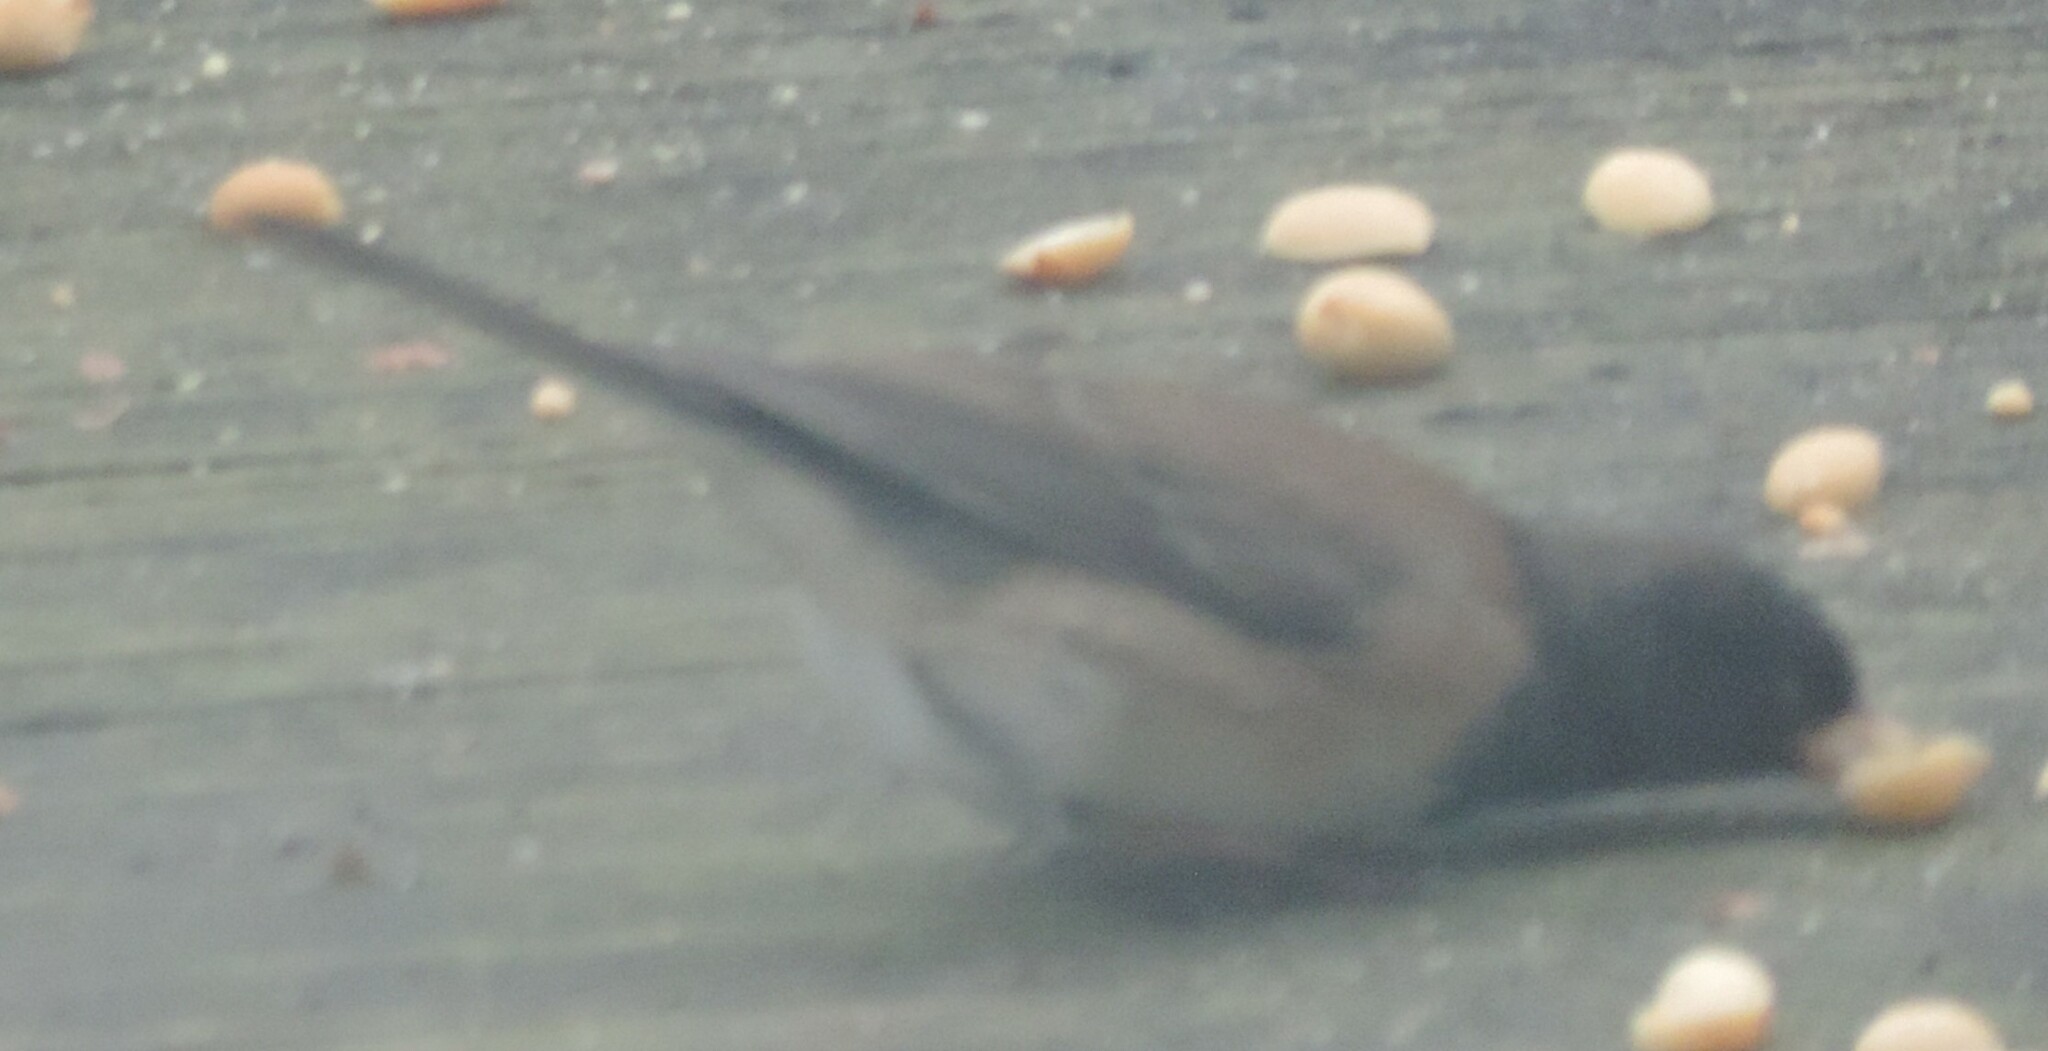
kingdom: Animalia
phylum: Chordata
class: Aves
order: Passeriformes
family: Passerellidae
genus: Junco
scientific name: Junco hyemalis
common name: Dark-eyed junco
